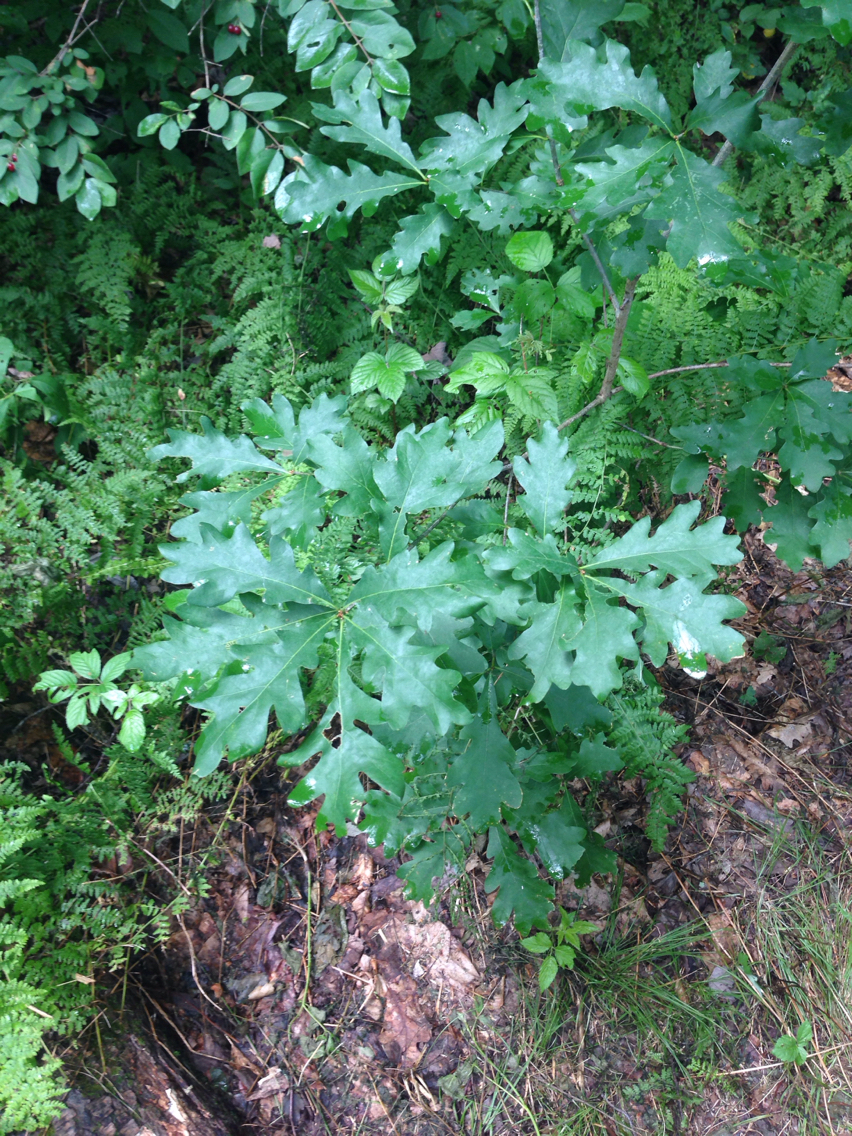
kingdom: Plantae
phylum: Tracheophyta
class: Magnoliopsida
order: Fagales
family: Fagaceae
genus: Quercus
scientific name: Quercus alba
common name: White oak
